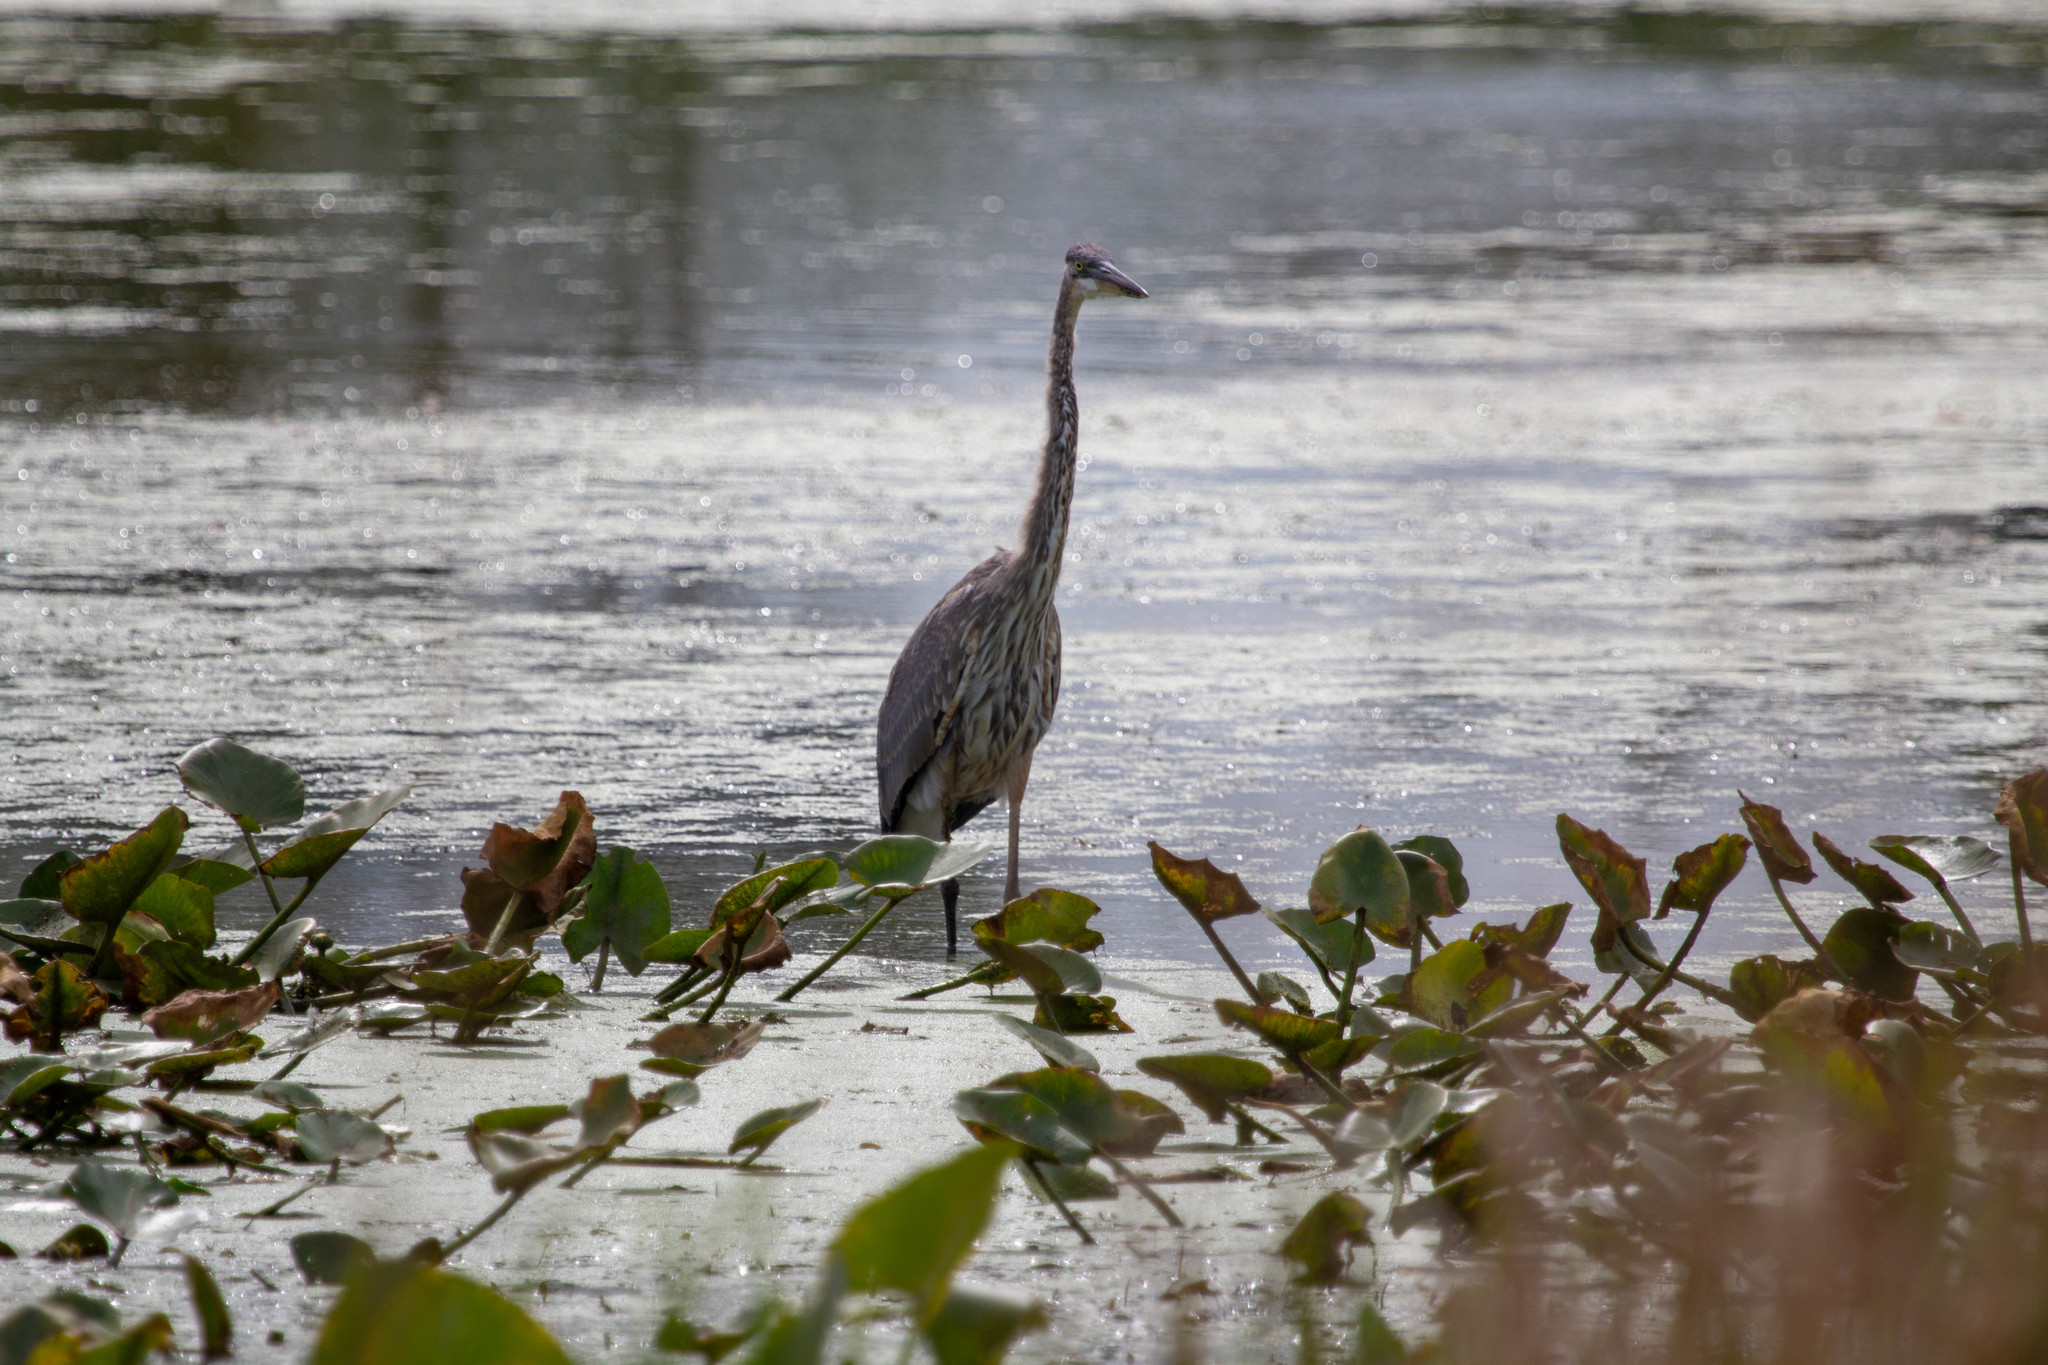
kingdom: Animalia
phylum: Chordata
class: Aves
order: Pelecaniformes
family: Ardeidae
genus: Ardea
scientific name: Ardea herodias
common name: Great blue heron
